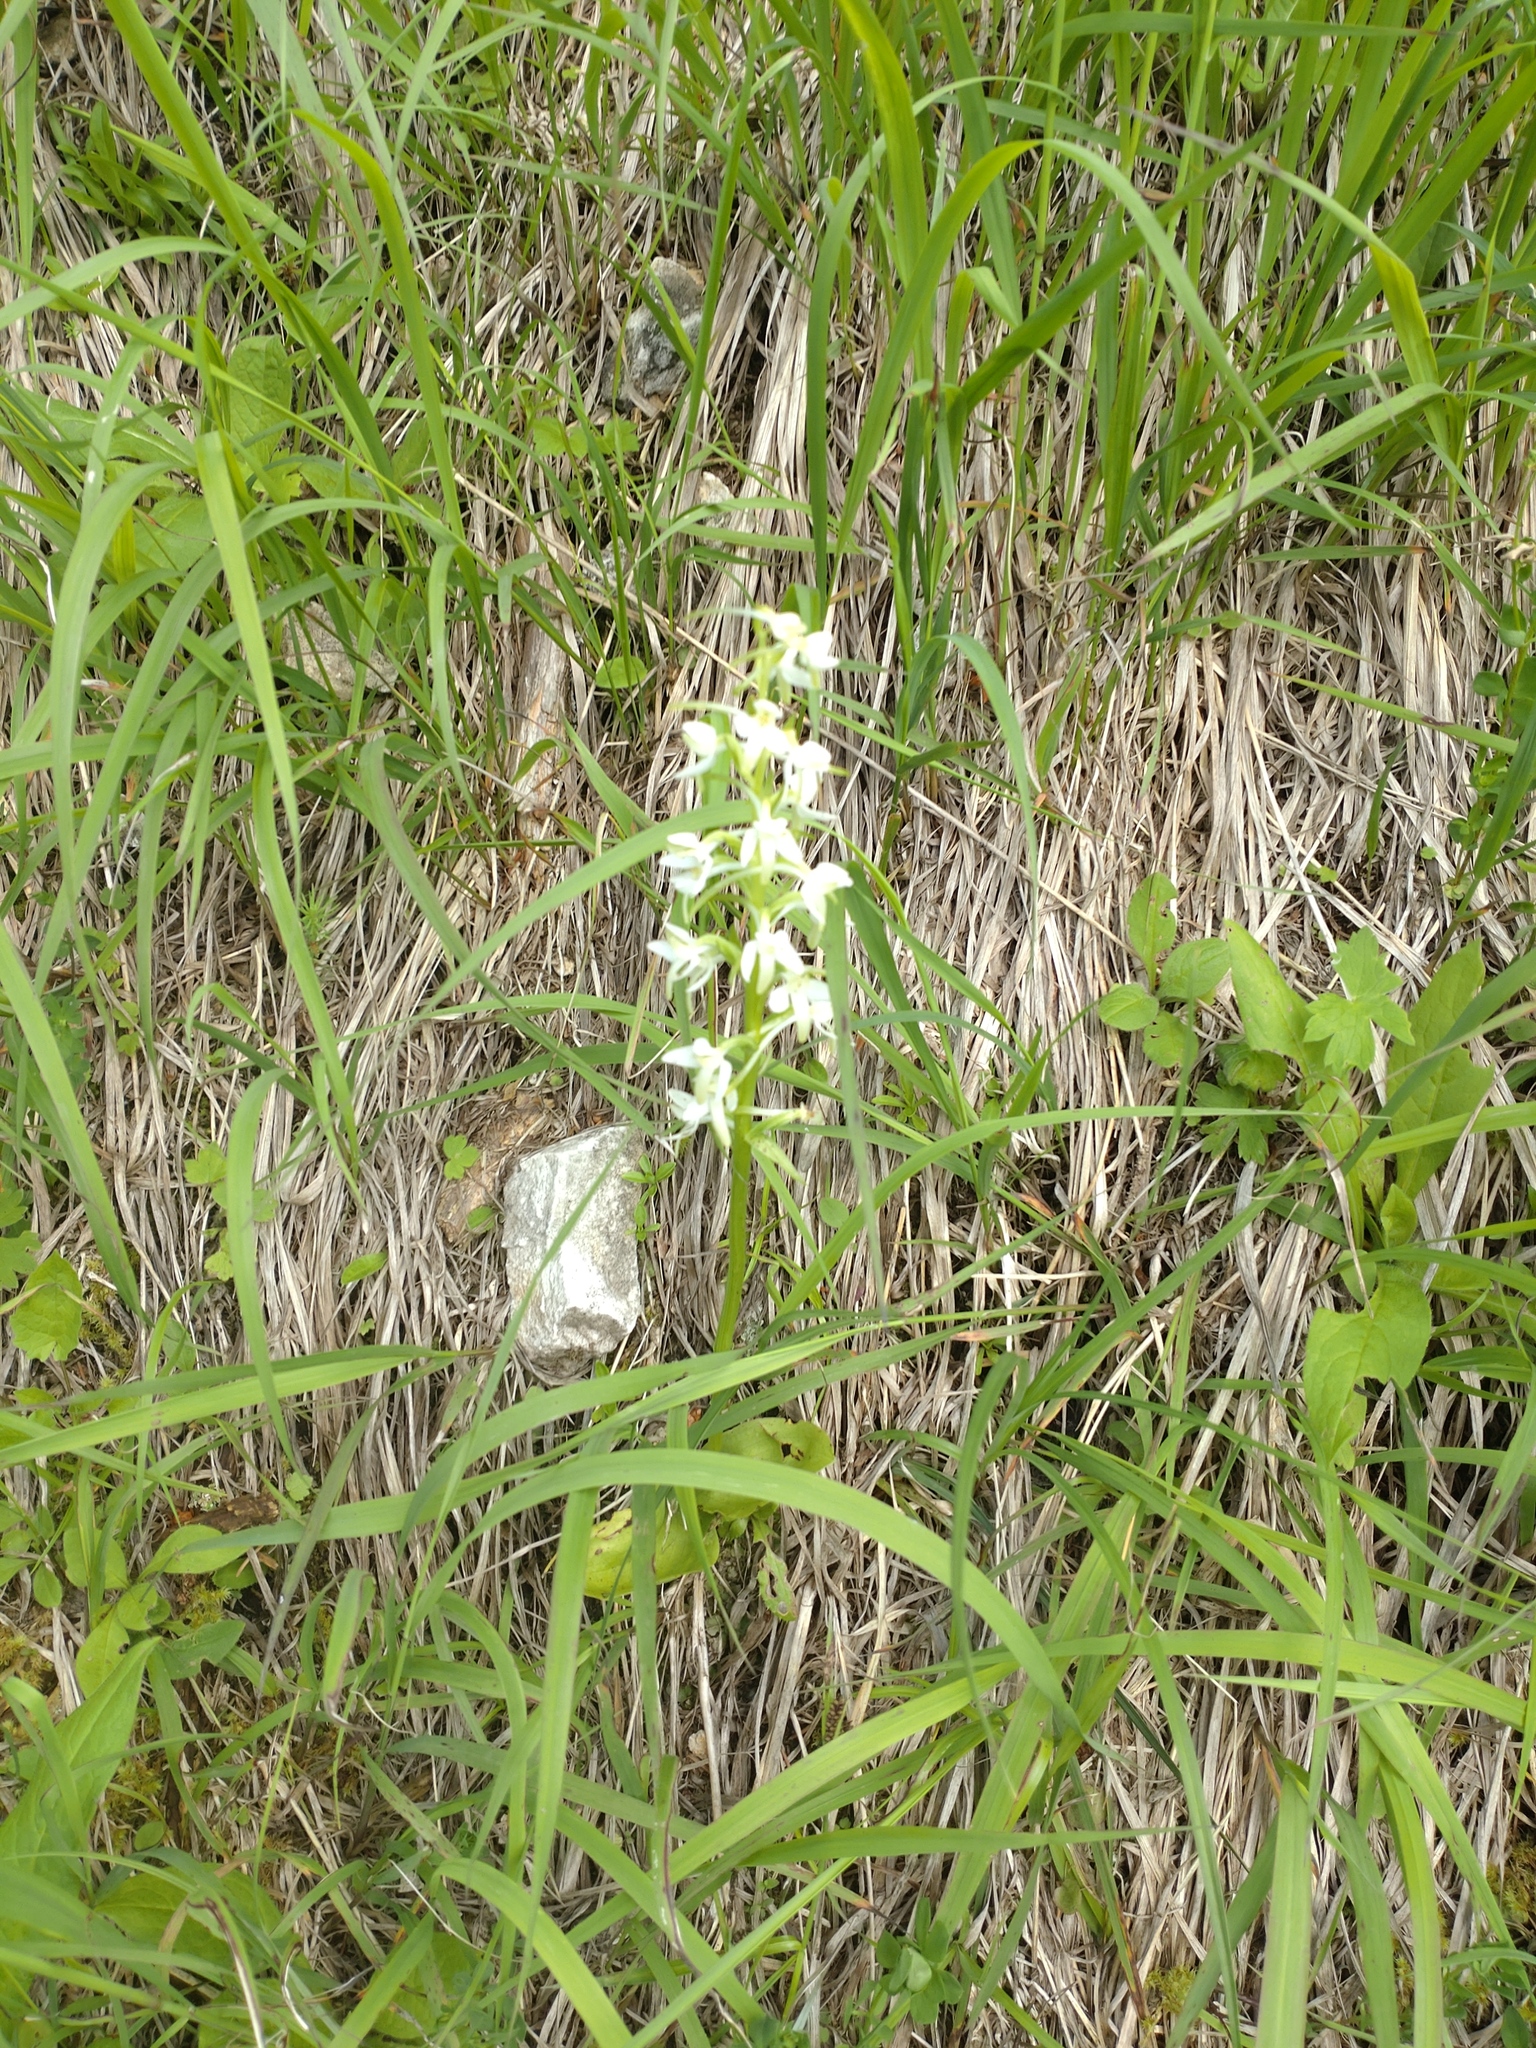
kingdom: Plantae
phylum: Tracheophyta
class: Liliopsida
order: Asparagales
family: Orchidaceae
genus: Platanthera
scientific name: Platanthera bifolia
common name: Lesser butterfly-orchid
